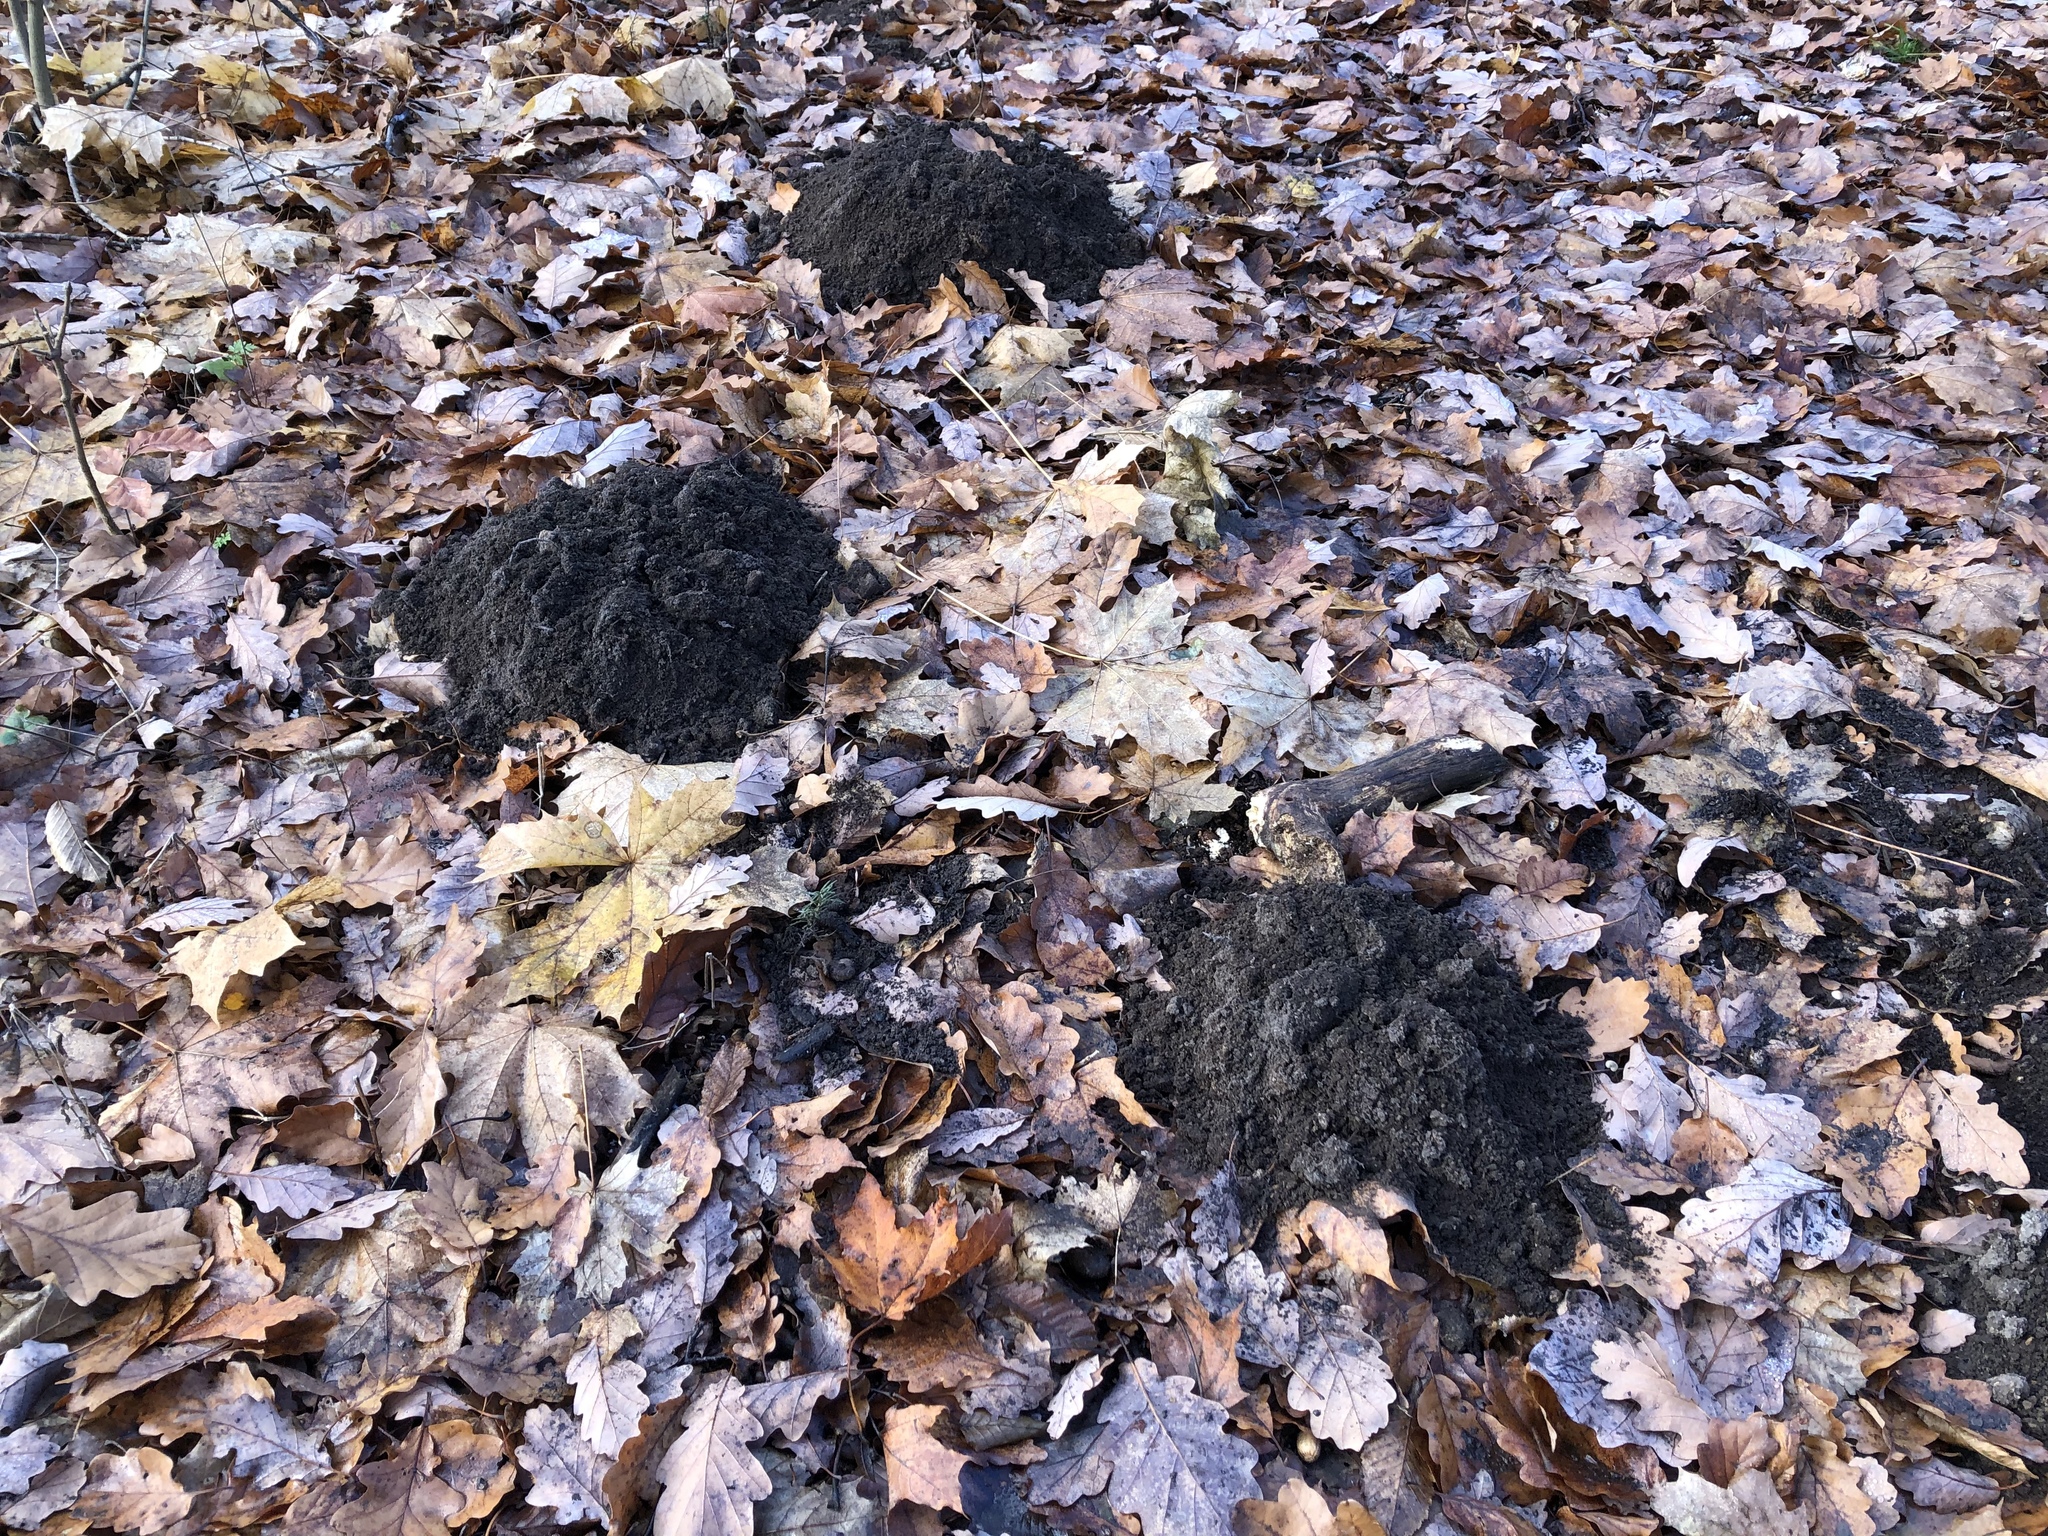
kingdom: Animalia
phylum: Chordata
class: Mammalia
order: Soricomorpha
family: Talpidae
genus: Talpa
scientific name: Talpa europaea
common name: European mole
